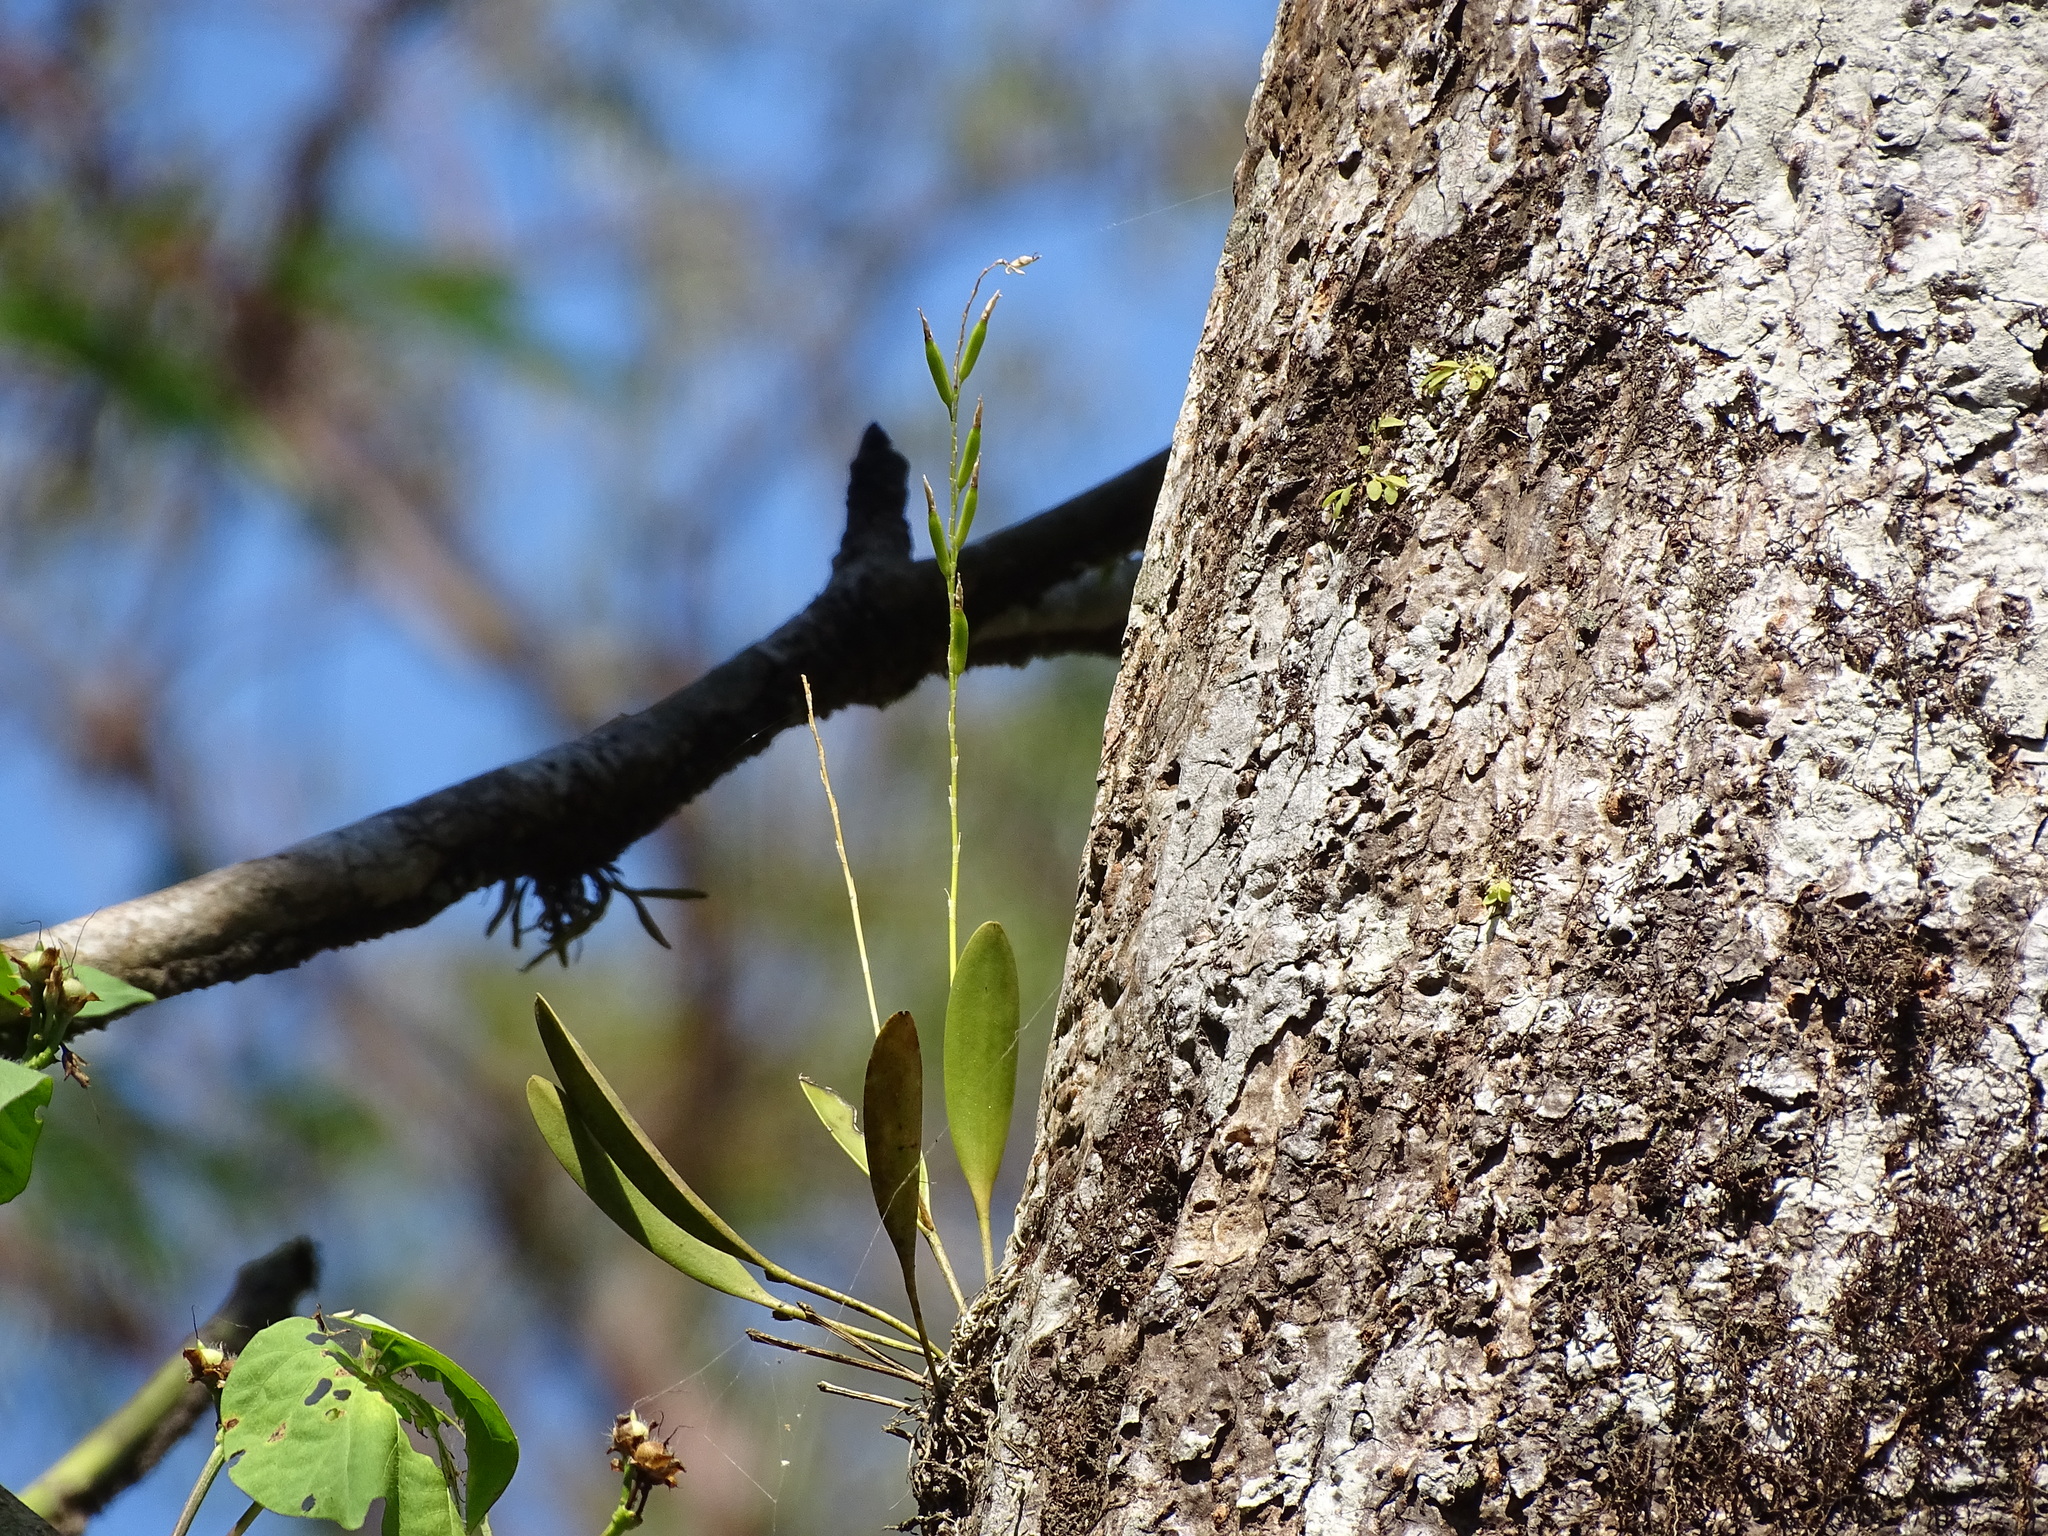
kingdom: Plantae
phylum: Tracheophyta
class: Liliopsida
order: Asparagales
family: Orchidaceae
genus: Pleurothallis
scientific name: Pleurothallis quadrifida
